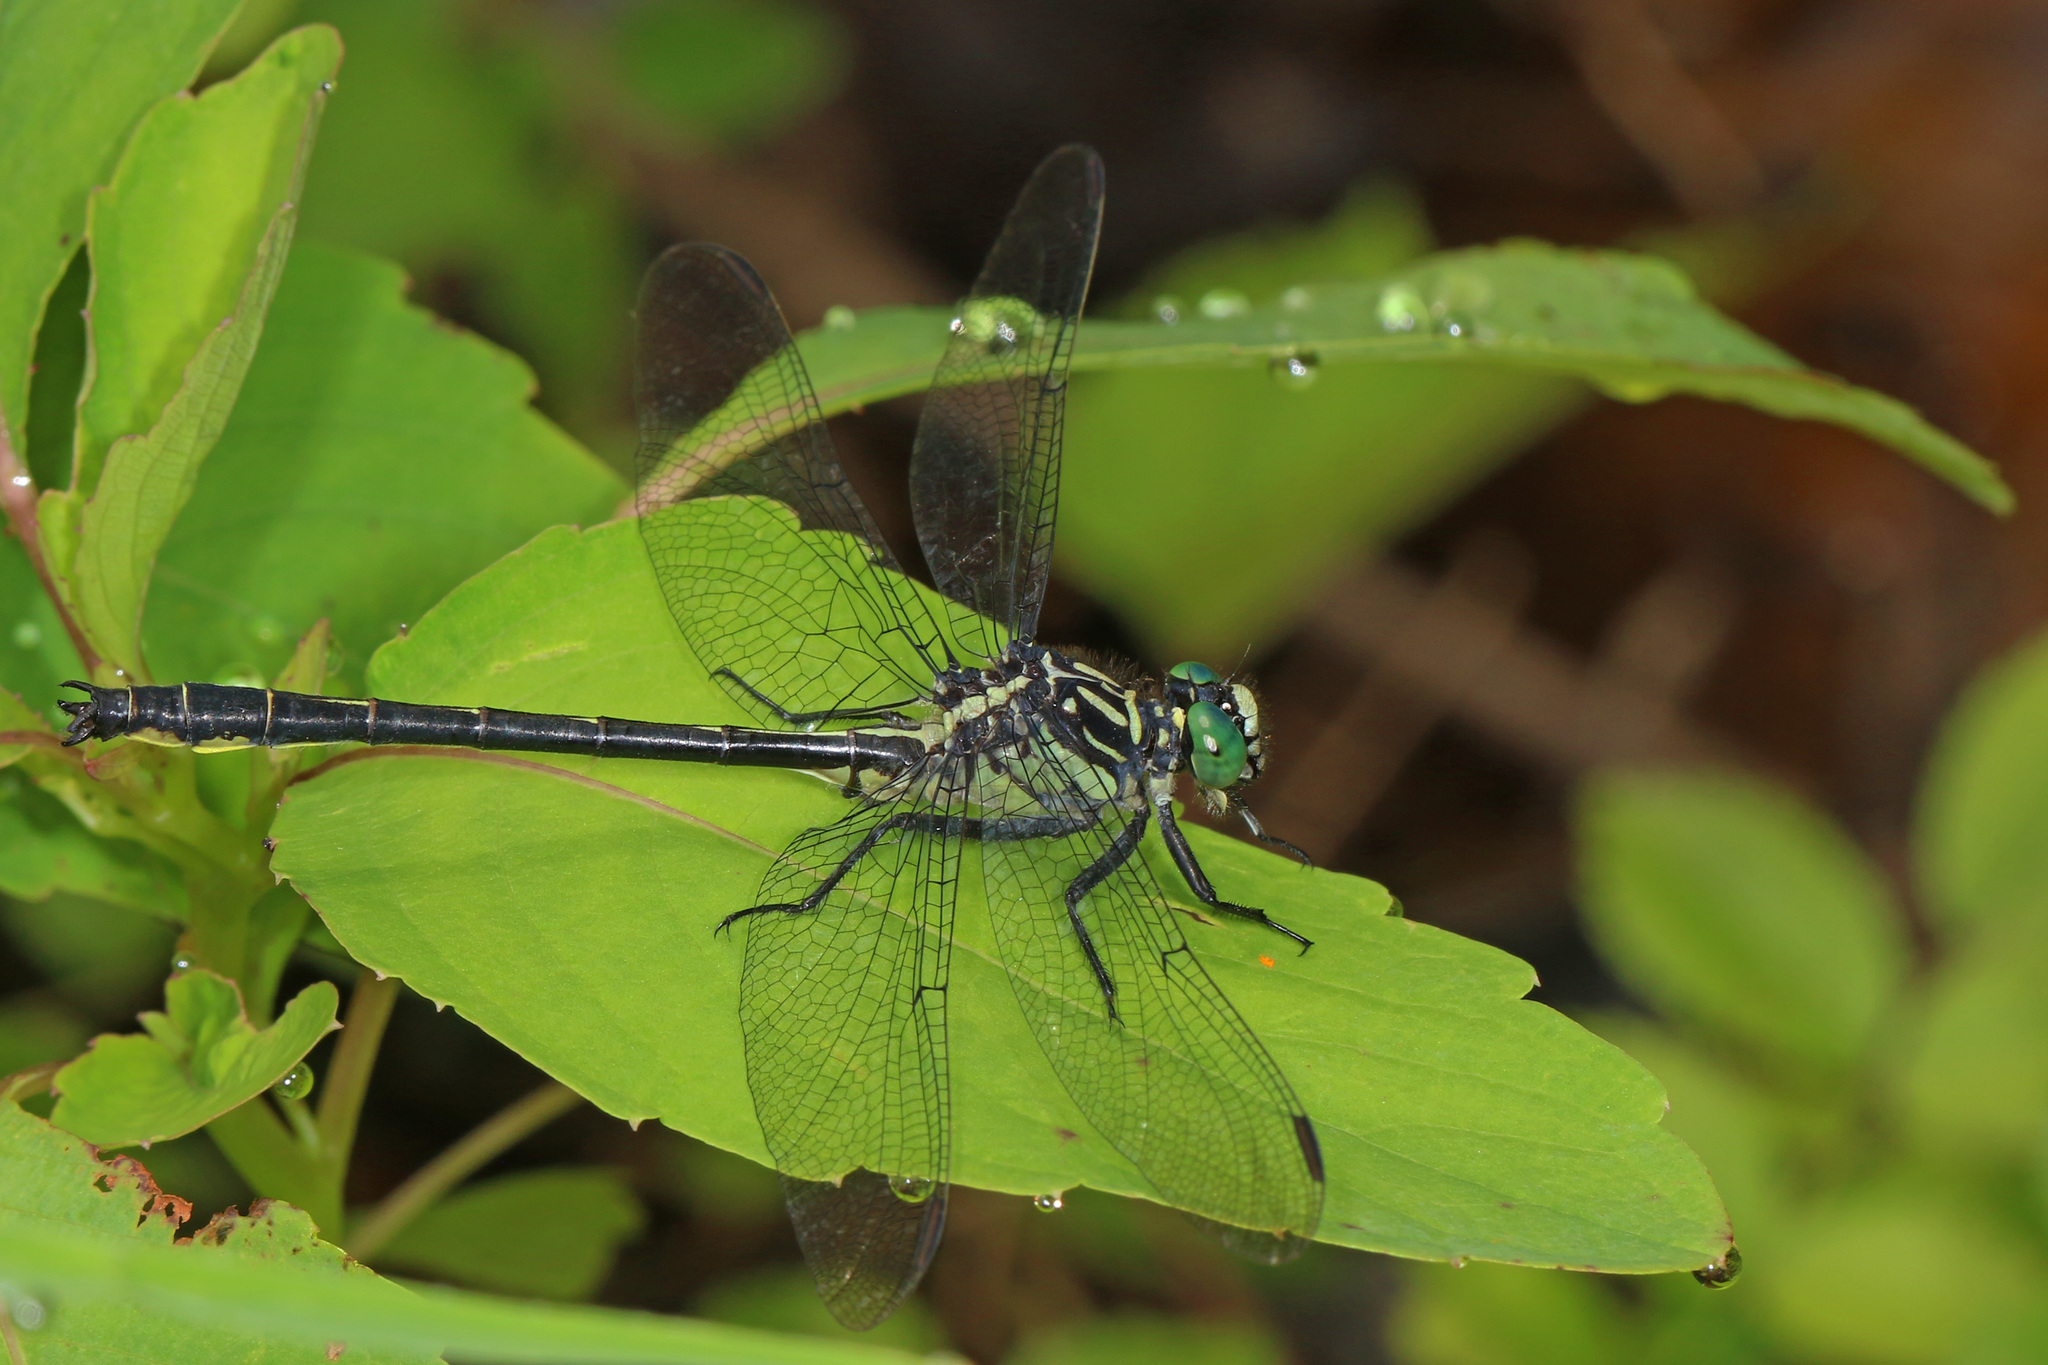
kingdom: Animalia
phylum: Arthropoda
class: Insecta
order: Odonata
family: Gomphidae
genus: Stenogomphurus
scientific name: Stenogomphurus rogersi
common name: Sable clubtail
